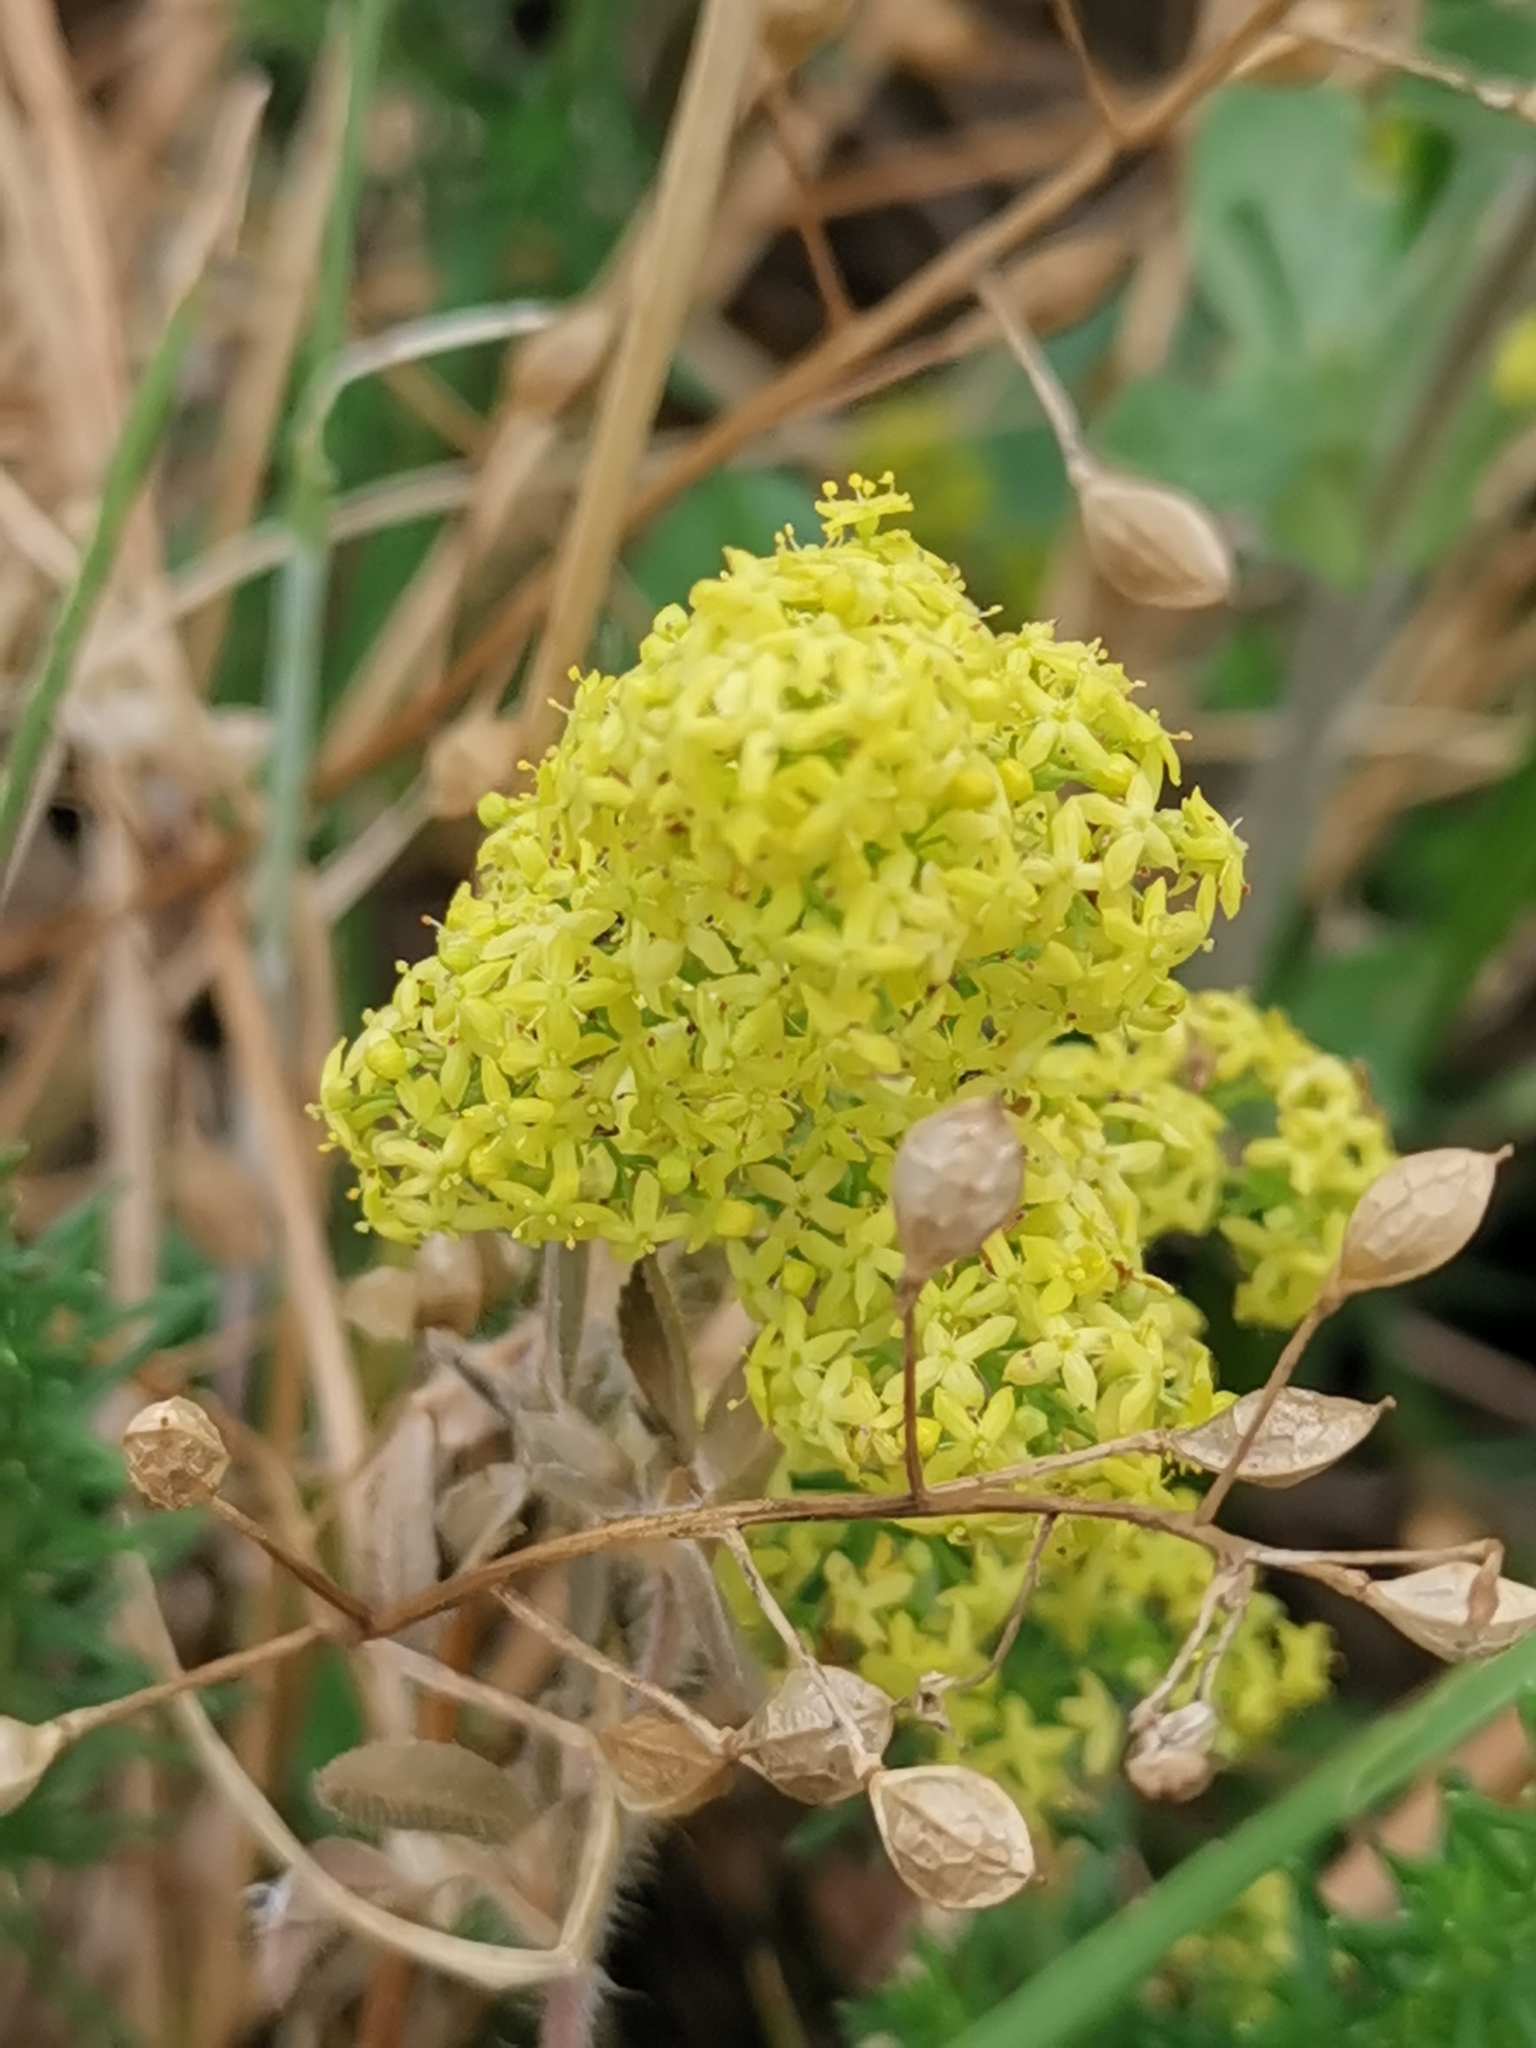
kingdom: Plantae
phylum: Tracheophyta
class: Magnoliopsida
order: Gentianales
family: Rubiaceae
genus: Galium
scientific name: Galium verum
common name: Lady's bedstraw
